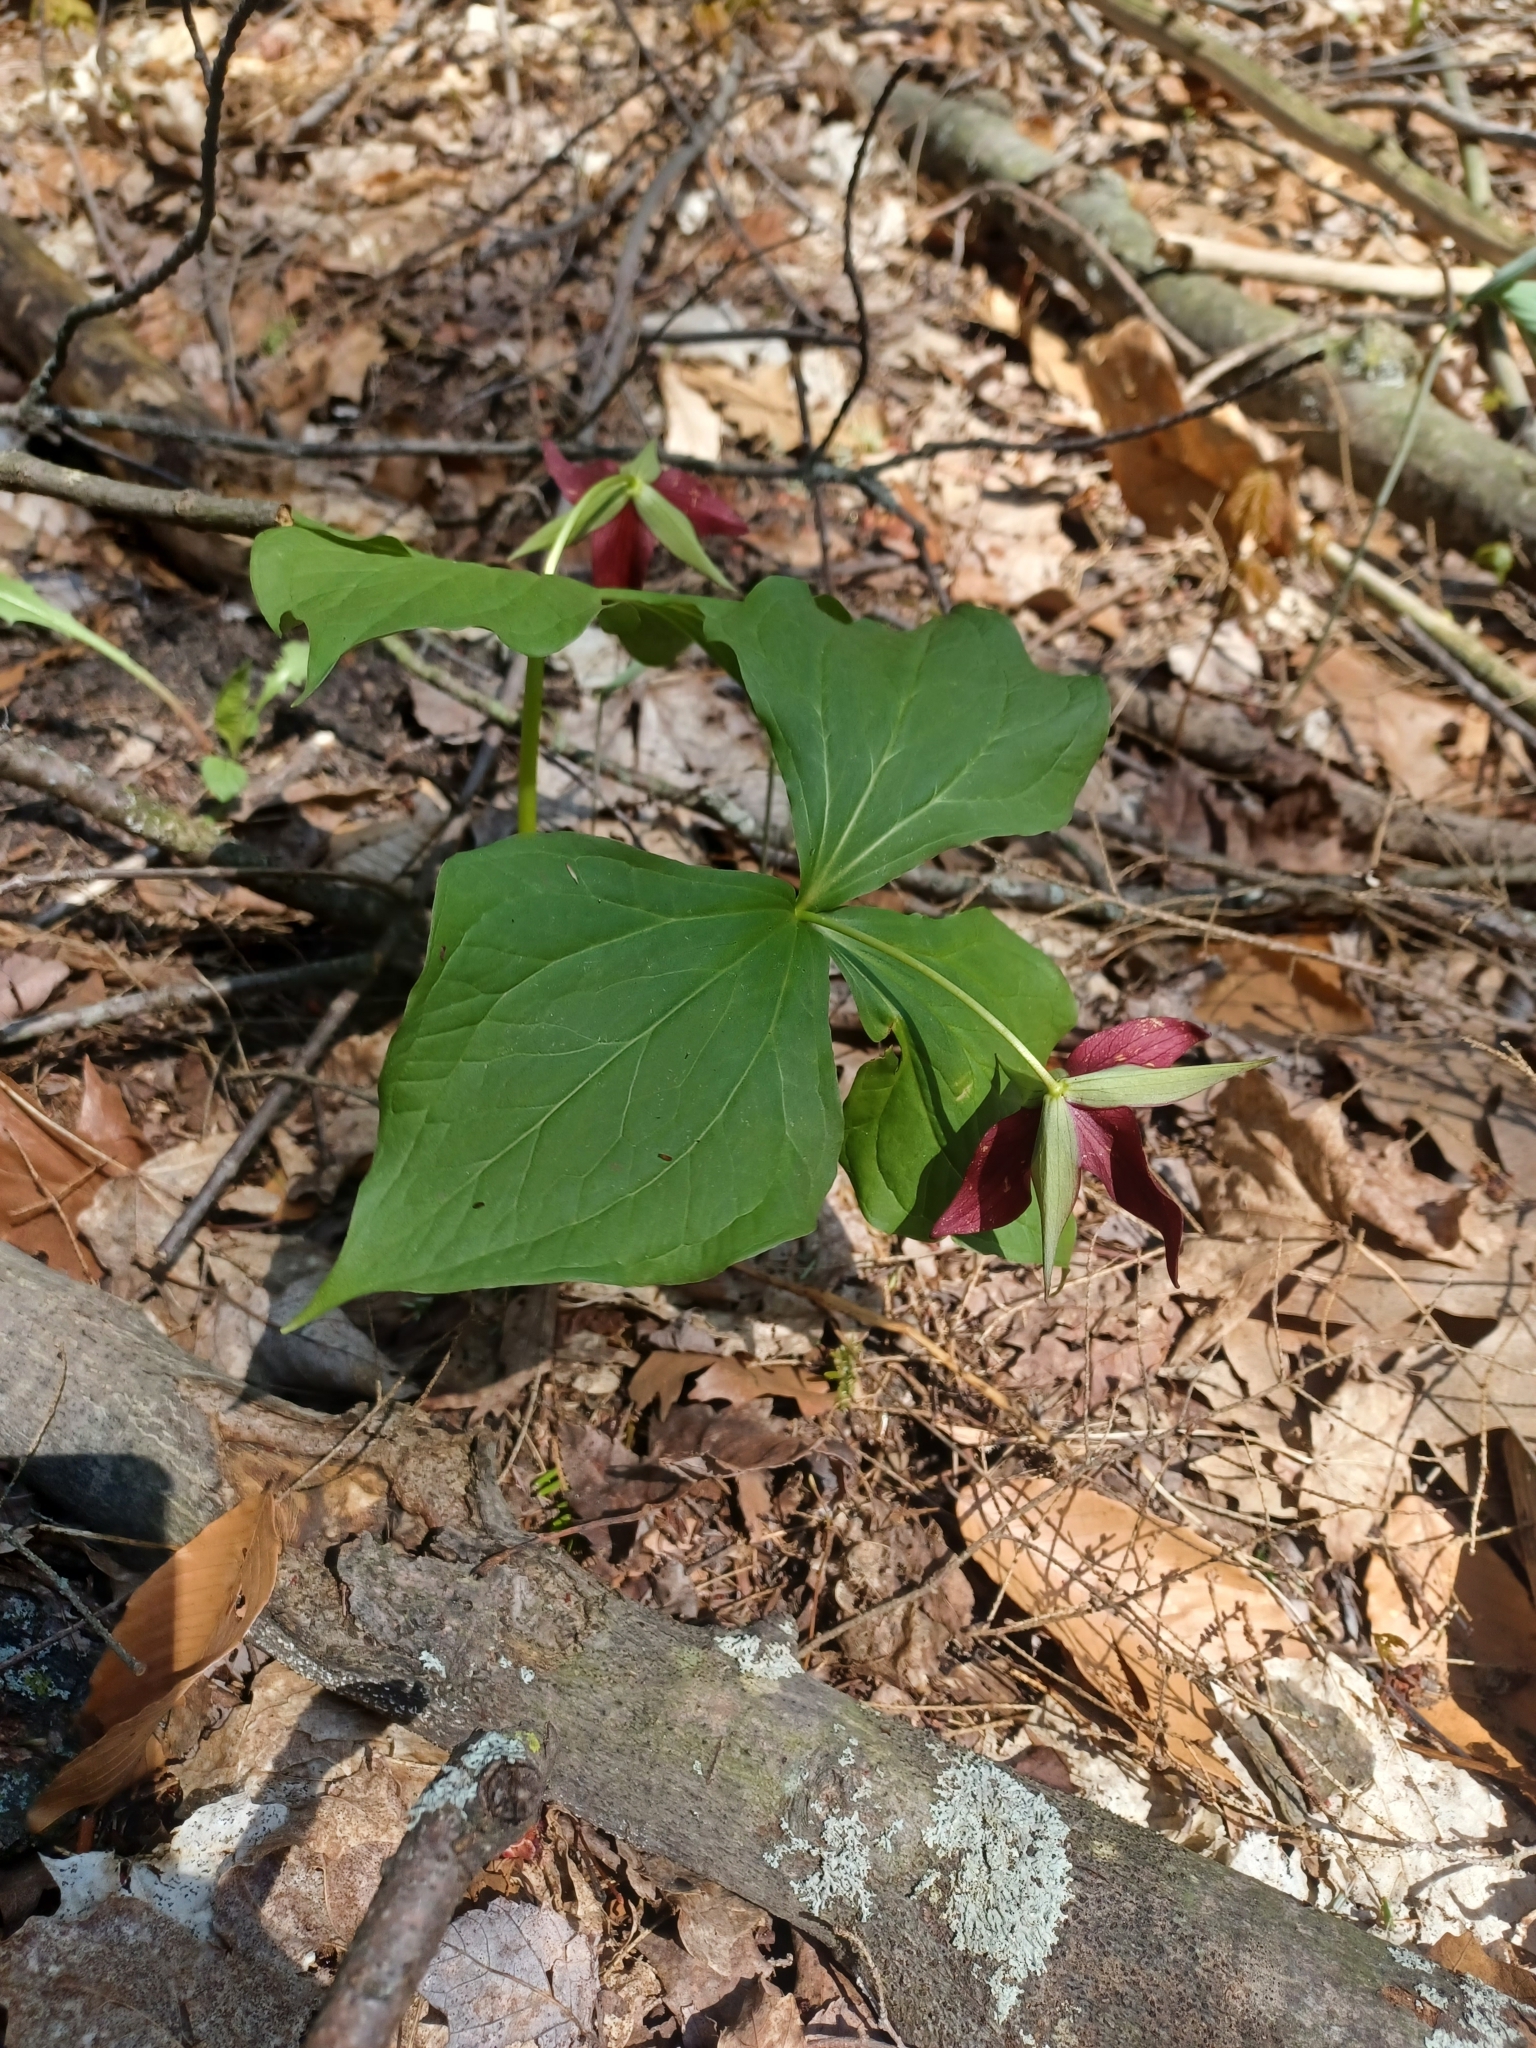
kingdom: Plantae
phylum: Tracheophyta
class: Liliopsida
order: Liliales
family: Melanthiaceae
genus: Trillium
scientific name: Trillium erectum
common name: Purple trillium
